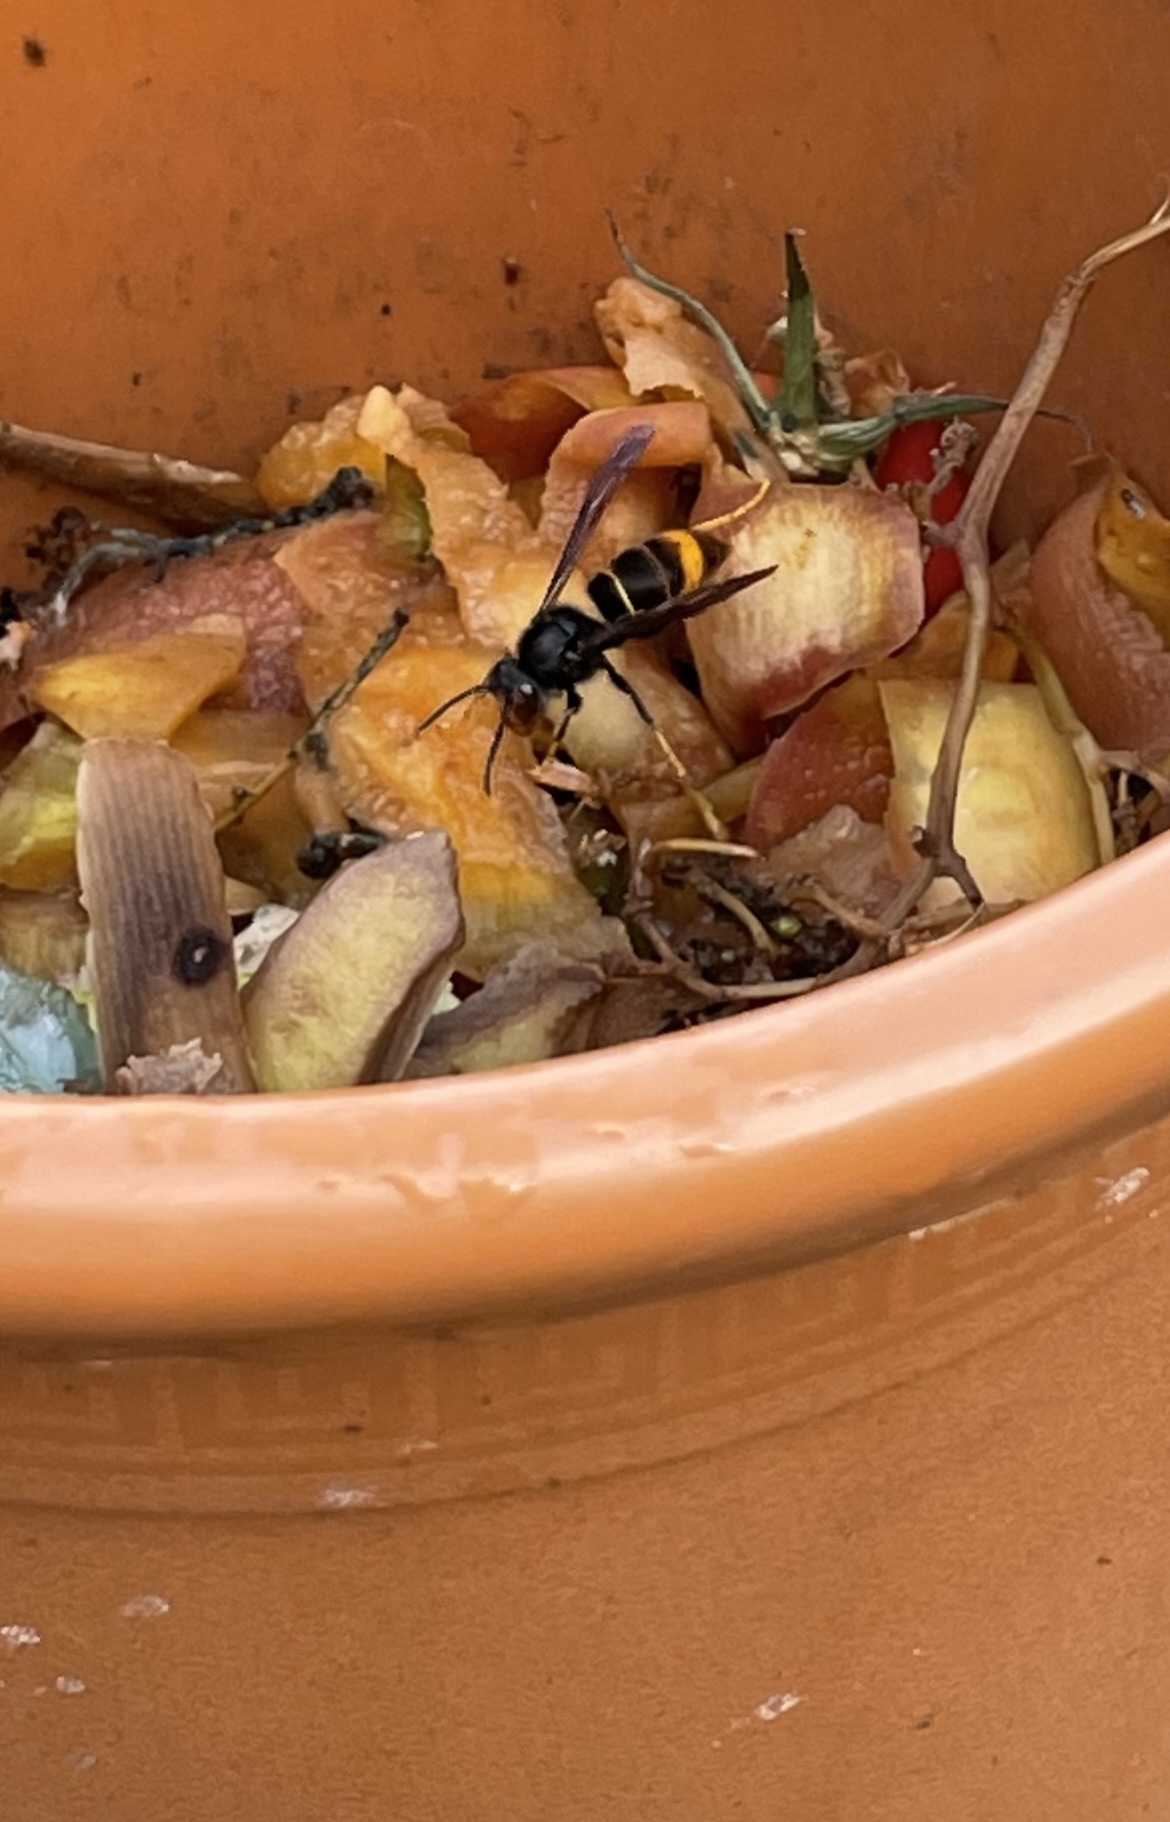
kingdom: Animalia
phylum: Arthropoda
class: Insecta
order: Hymenoptera
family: Vespidae
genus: Vespa
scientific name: Vespa velutina
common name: Asian hornet
